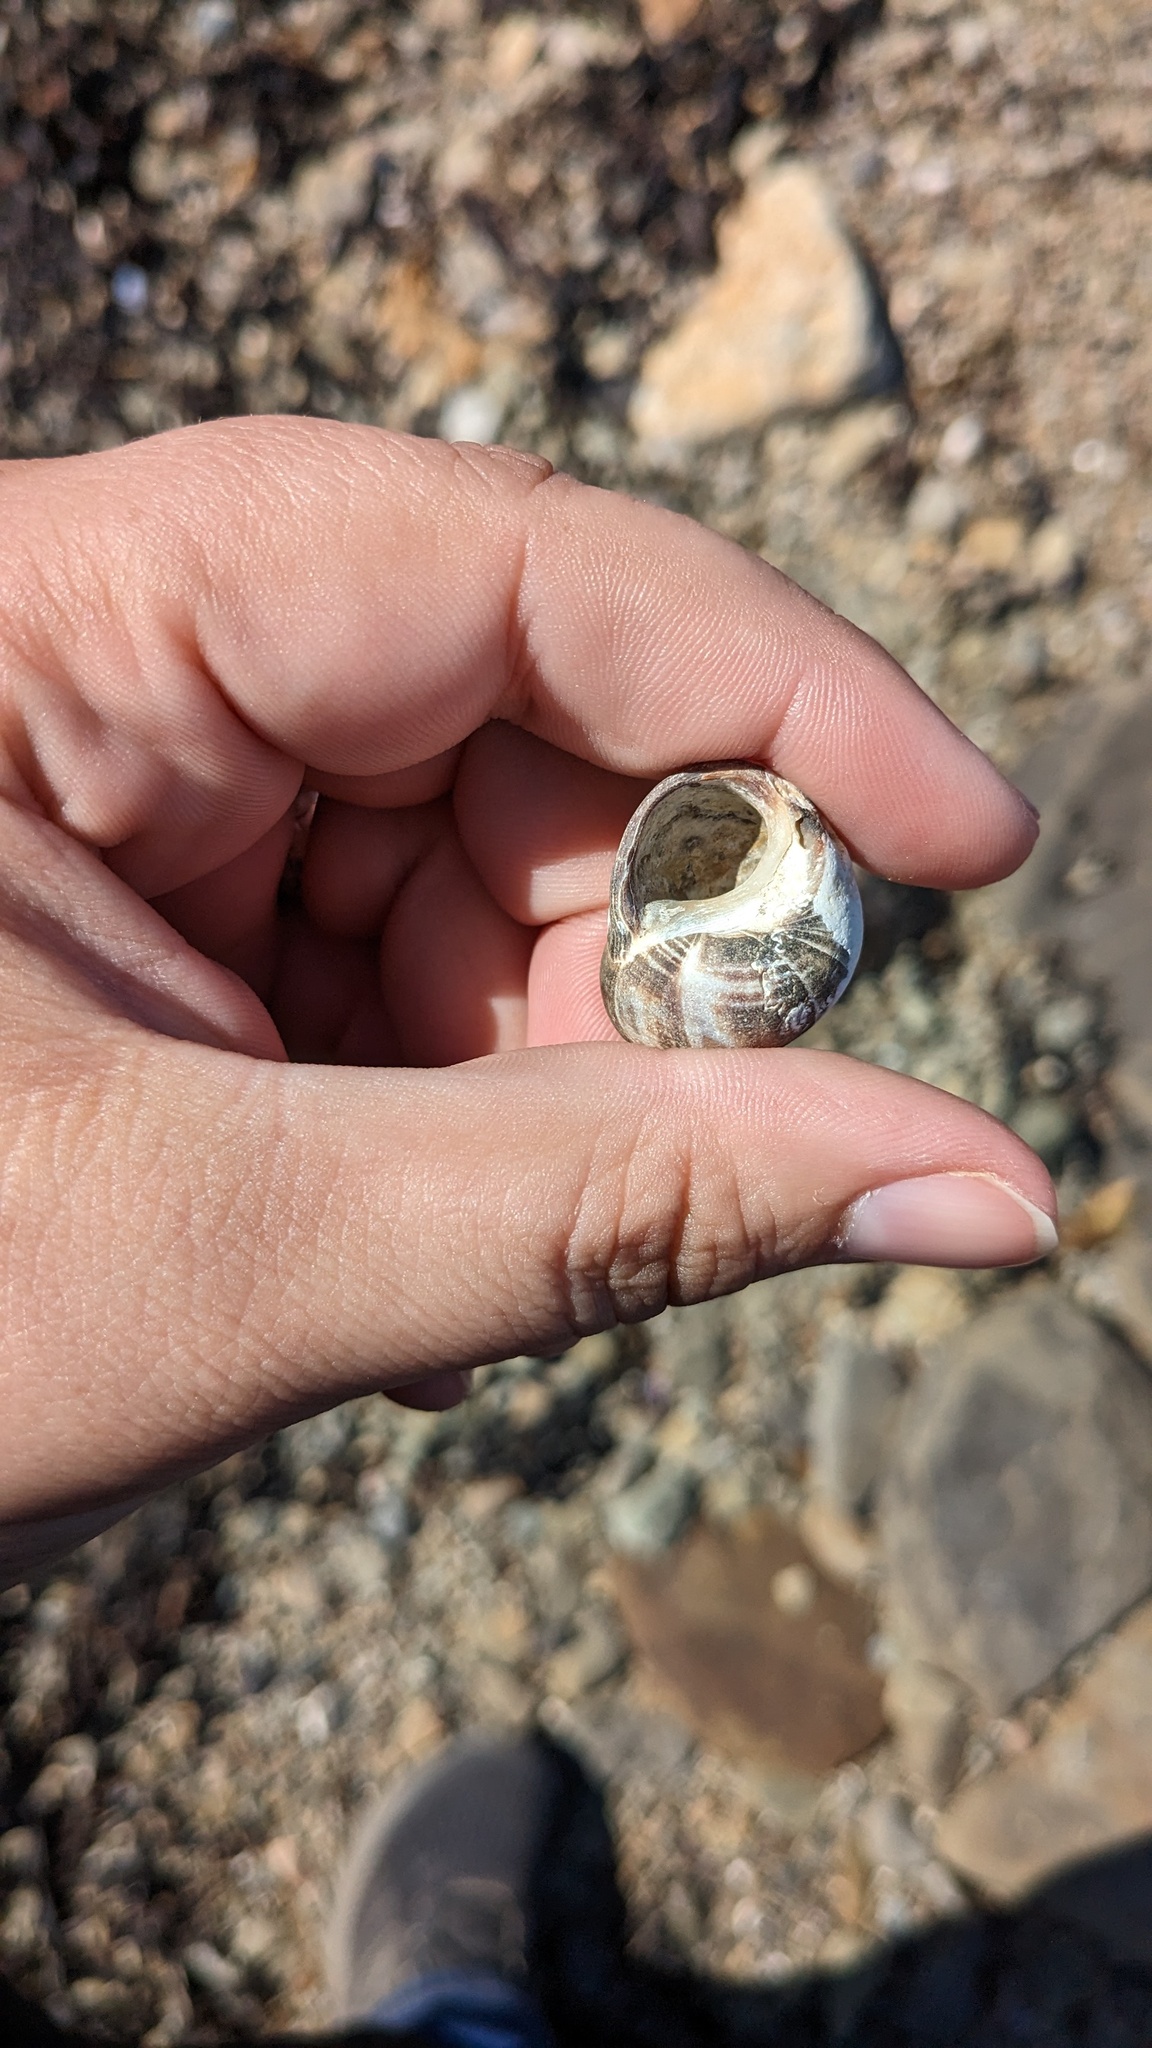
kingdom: Animalia
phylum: Mollusca
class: Gastropoda
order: Littorinimorpha
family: Littorinidae
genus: Littorina
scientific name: Littorina littorea
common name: Common periwinkle
